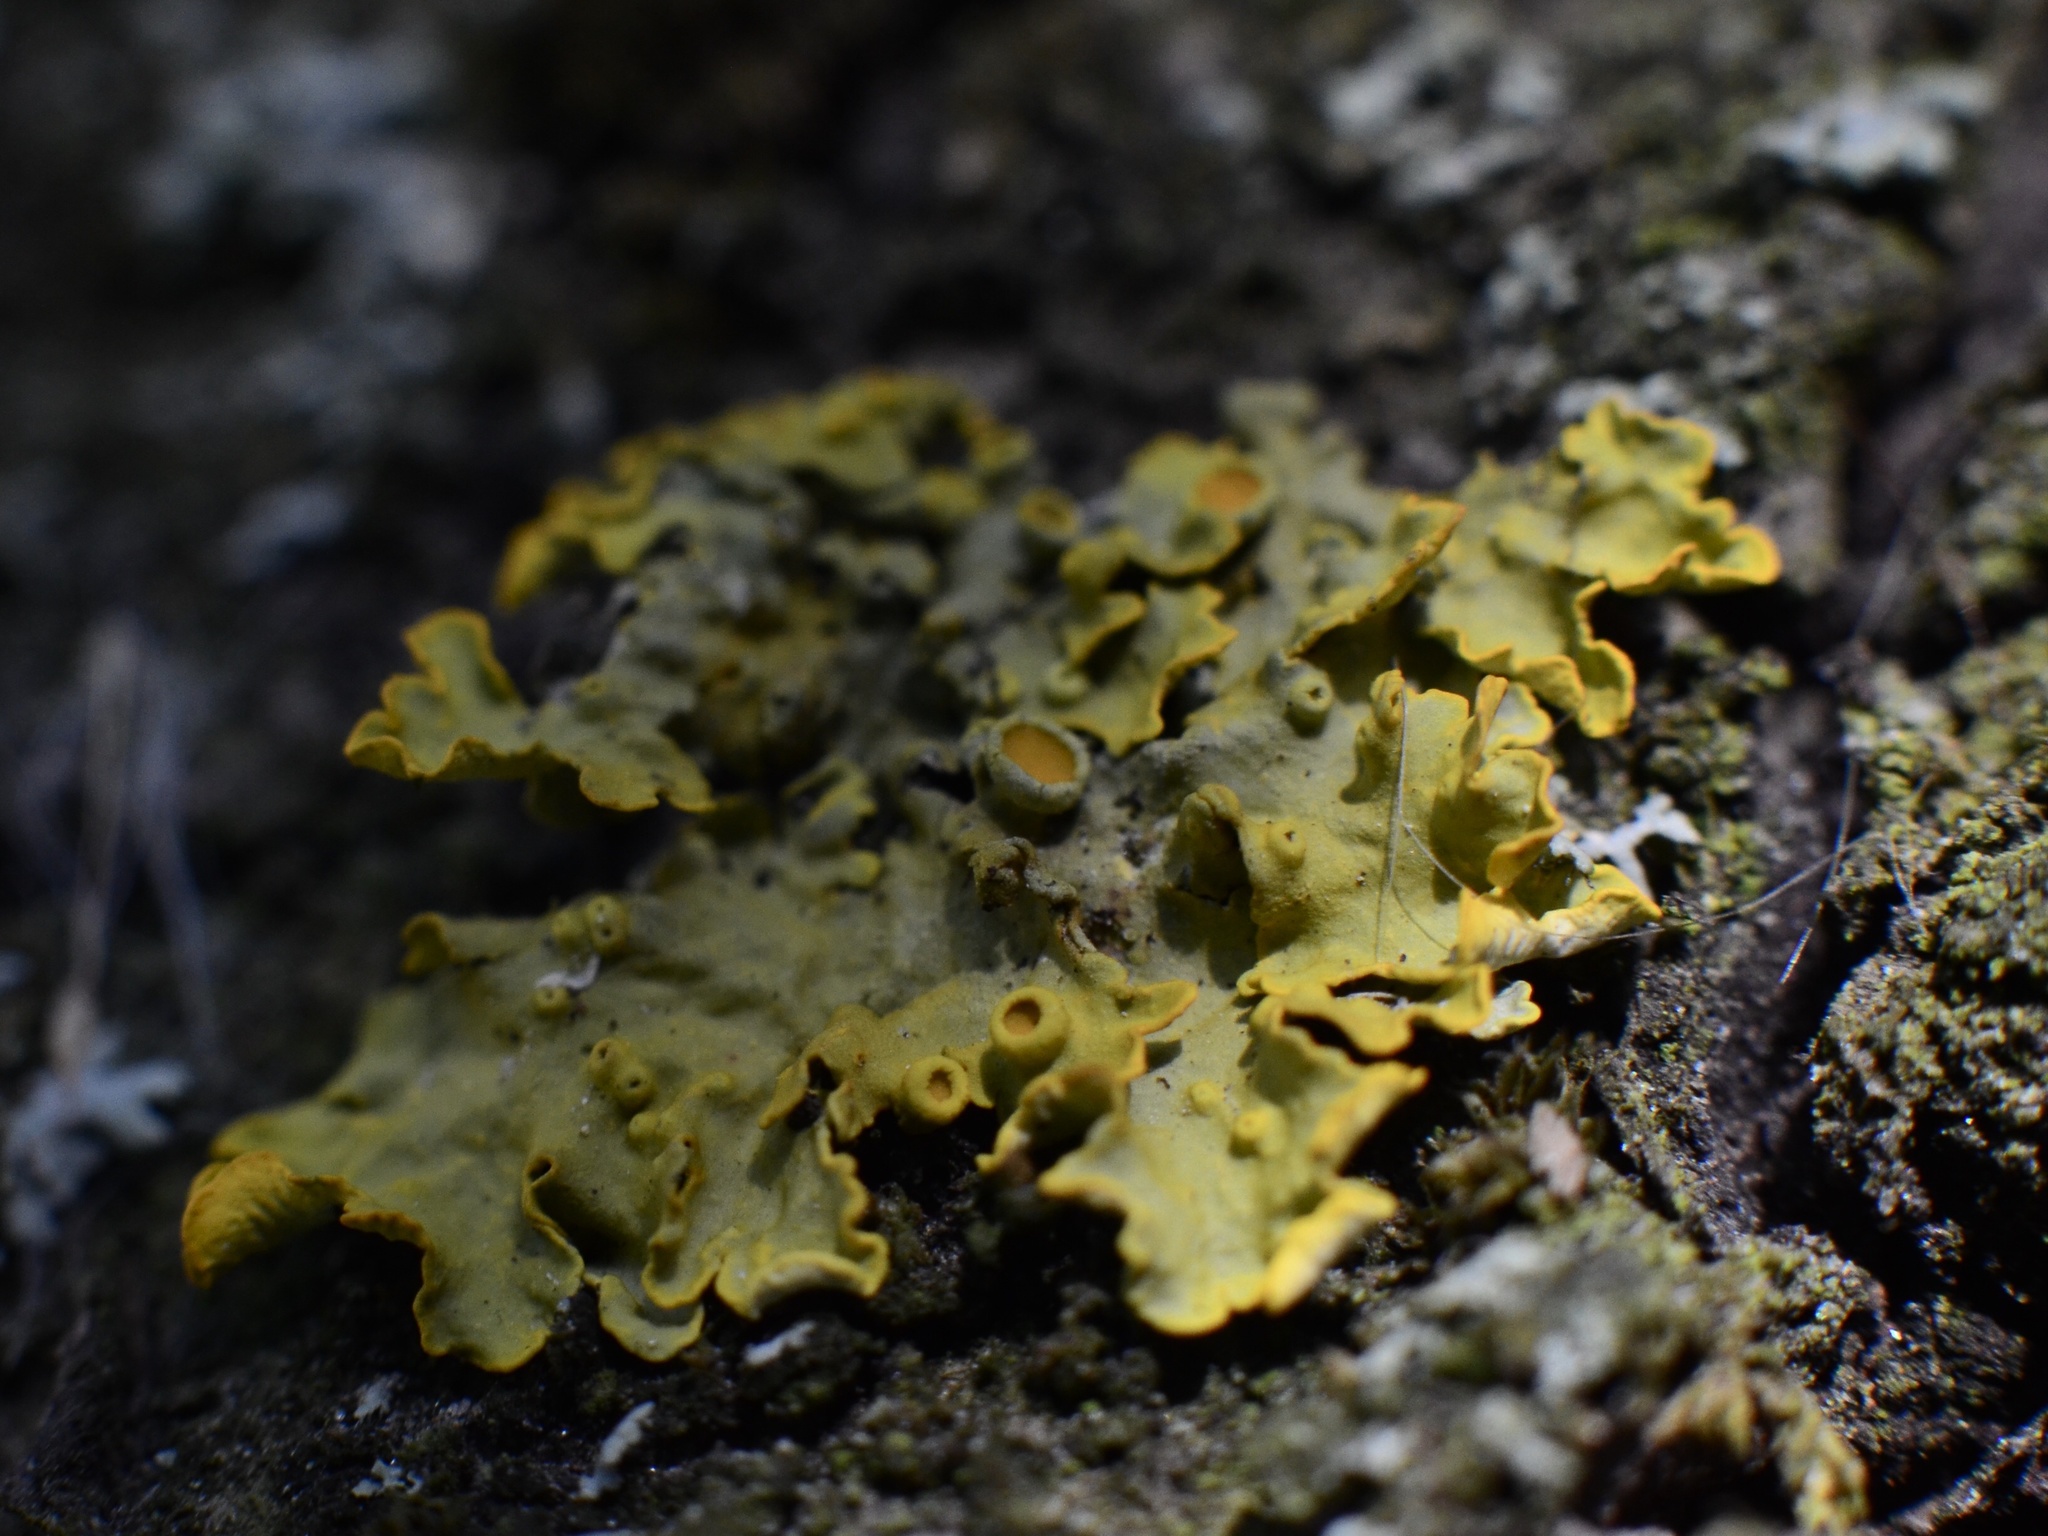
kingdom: Fungi
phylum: Ascomycota
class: Lecanoromycetes
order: Teloschistales
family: Teloschistaceae
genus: Xanthoria
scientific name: Xanthoria parietina
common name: Common orange lichen
